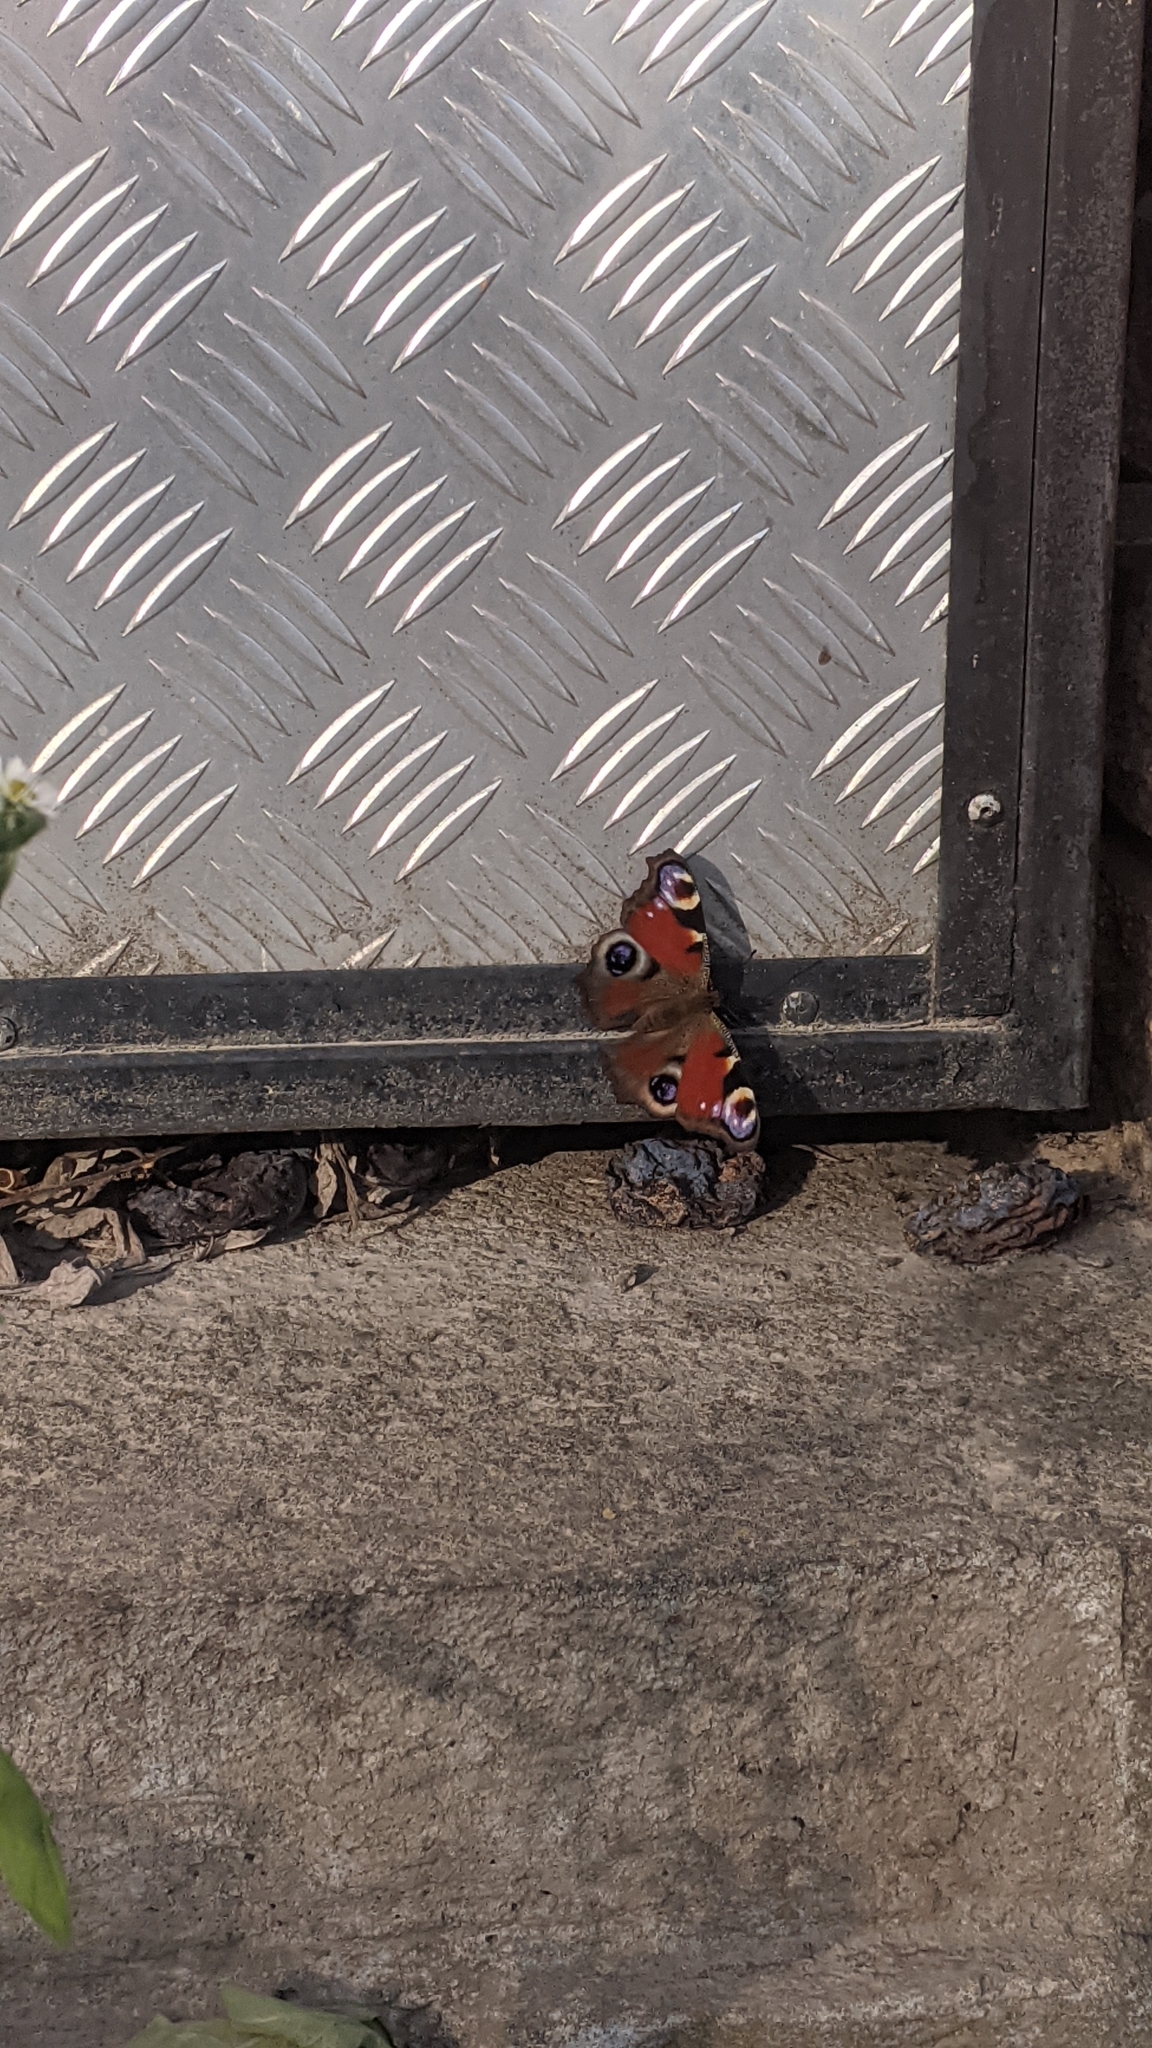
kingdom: Animalia
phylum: Arthropoda
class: Insecta
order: Lepidoptera
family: Nymphalidae
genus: Aglais
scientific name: Aglais io
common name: Peacock
